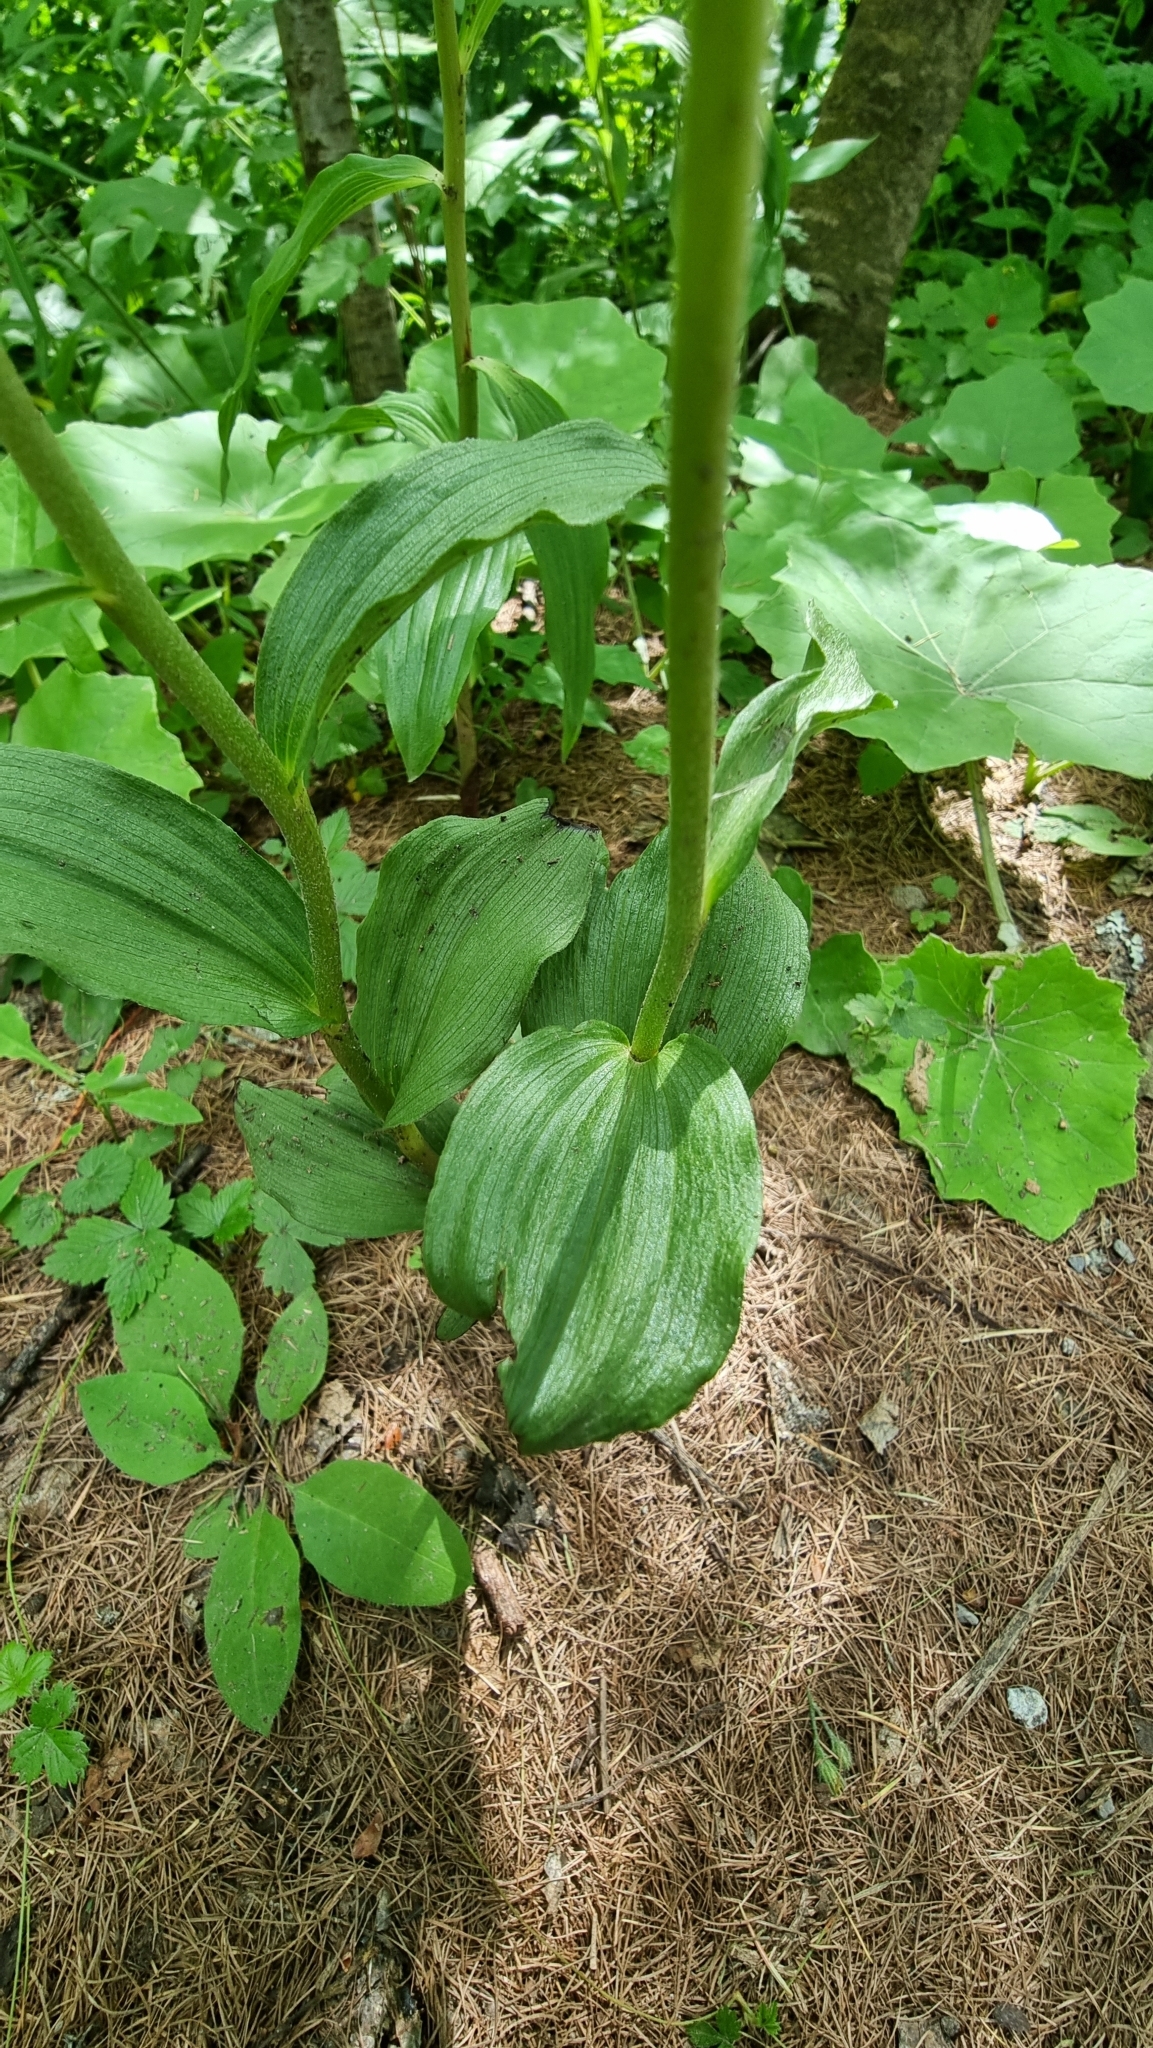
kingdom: Plantae
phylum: Tracheophyta
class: Liliopsida
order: Asparagales
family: Orchidaceae
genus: Epipactis
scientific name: Epipactis atrorubens
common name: Dark-red helleborine
